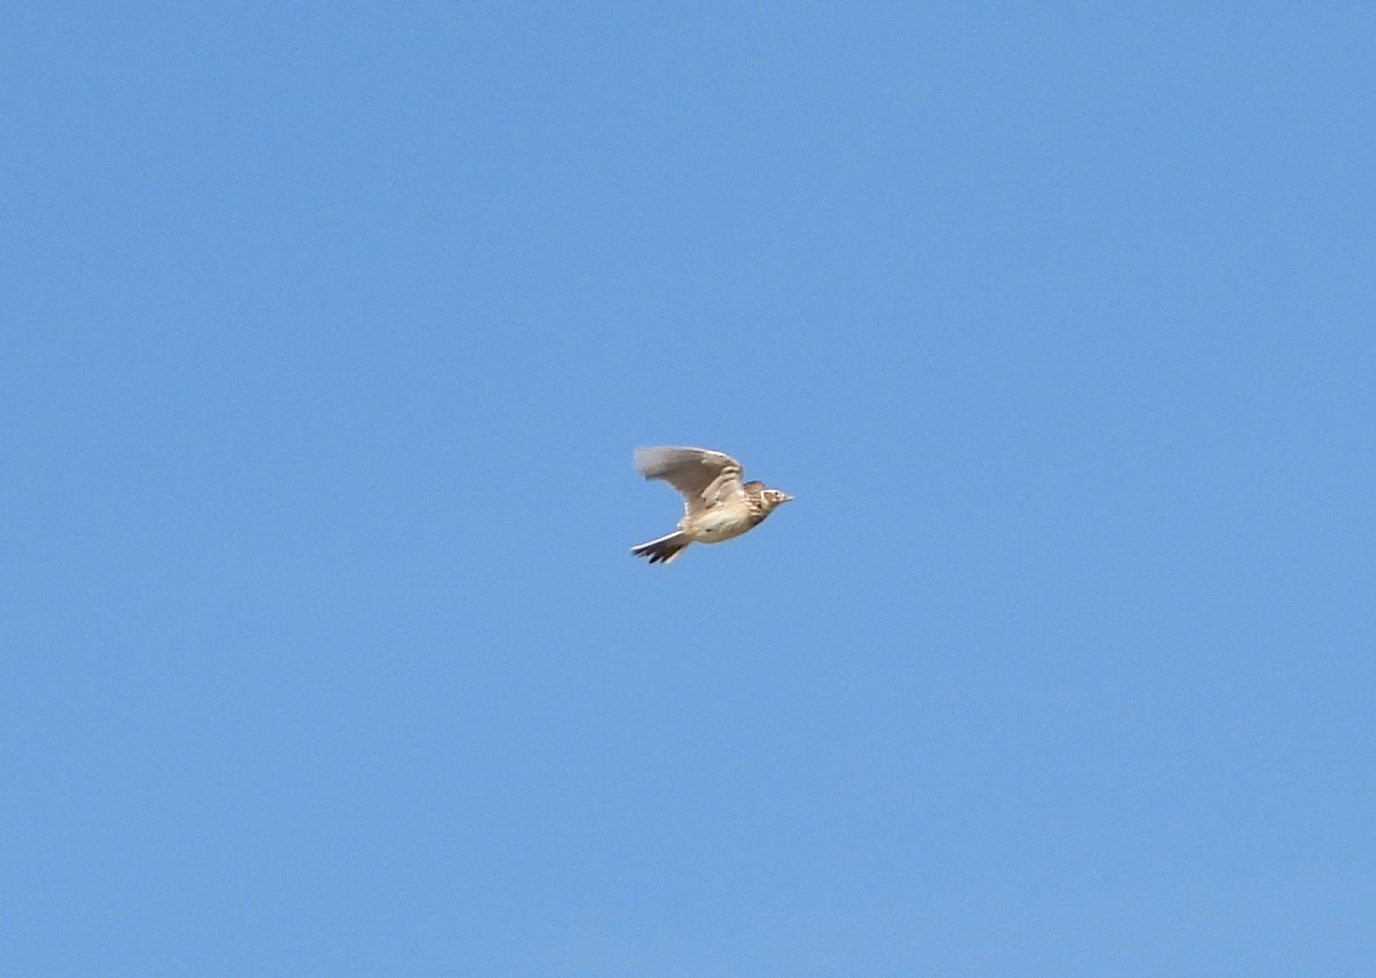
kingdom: Animalia
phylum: Chordata
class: Aves
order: Passeriformes
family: Alaudidae
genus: Alauda
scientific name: Alauda arvensis
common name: Eurasian skylark
